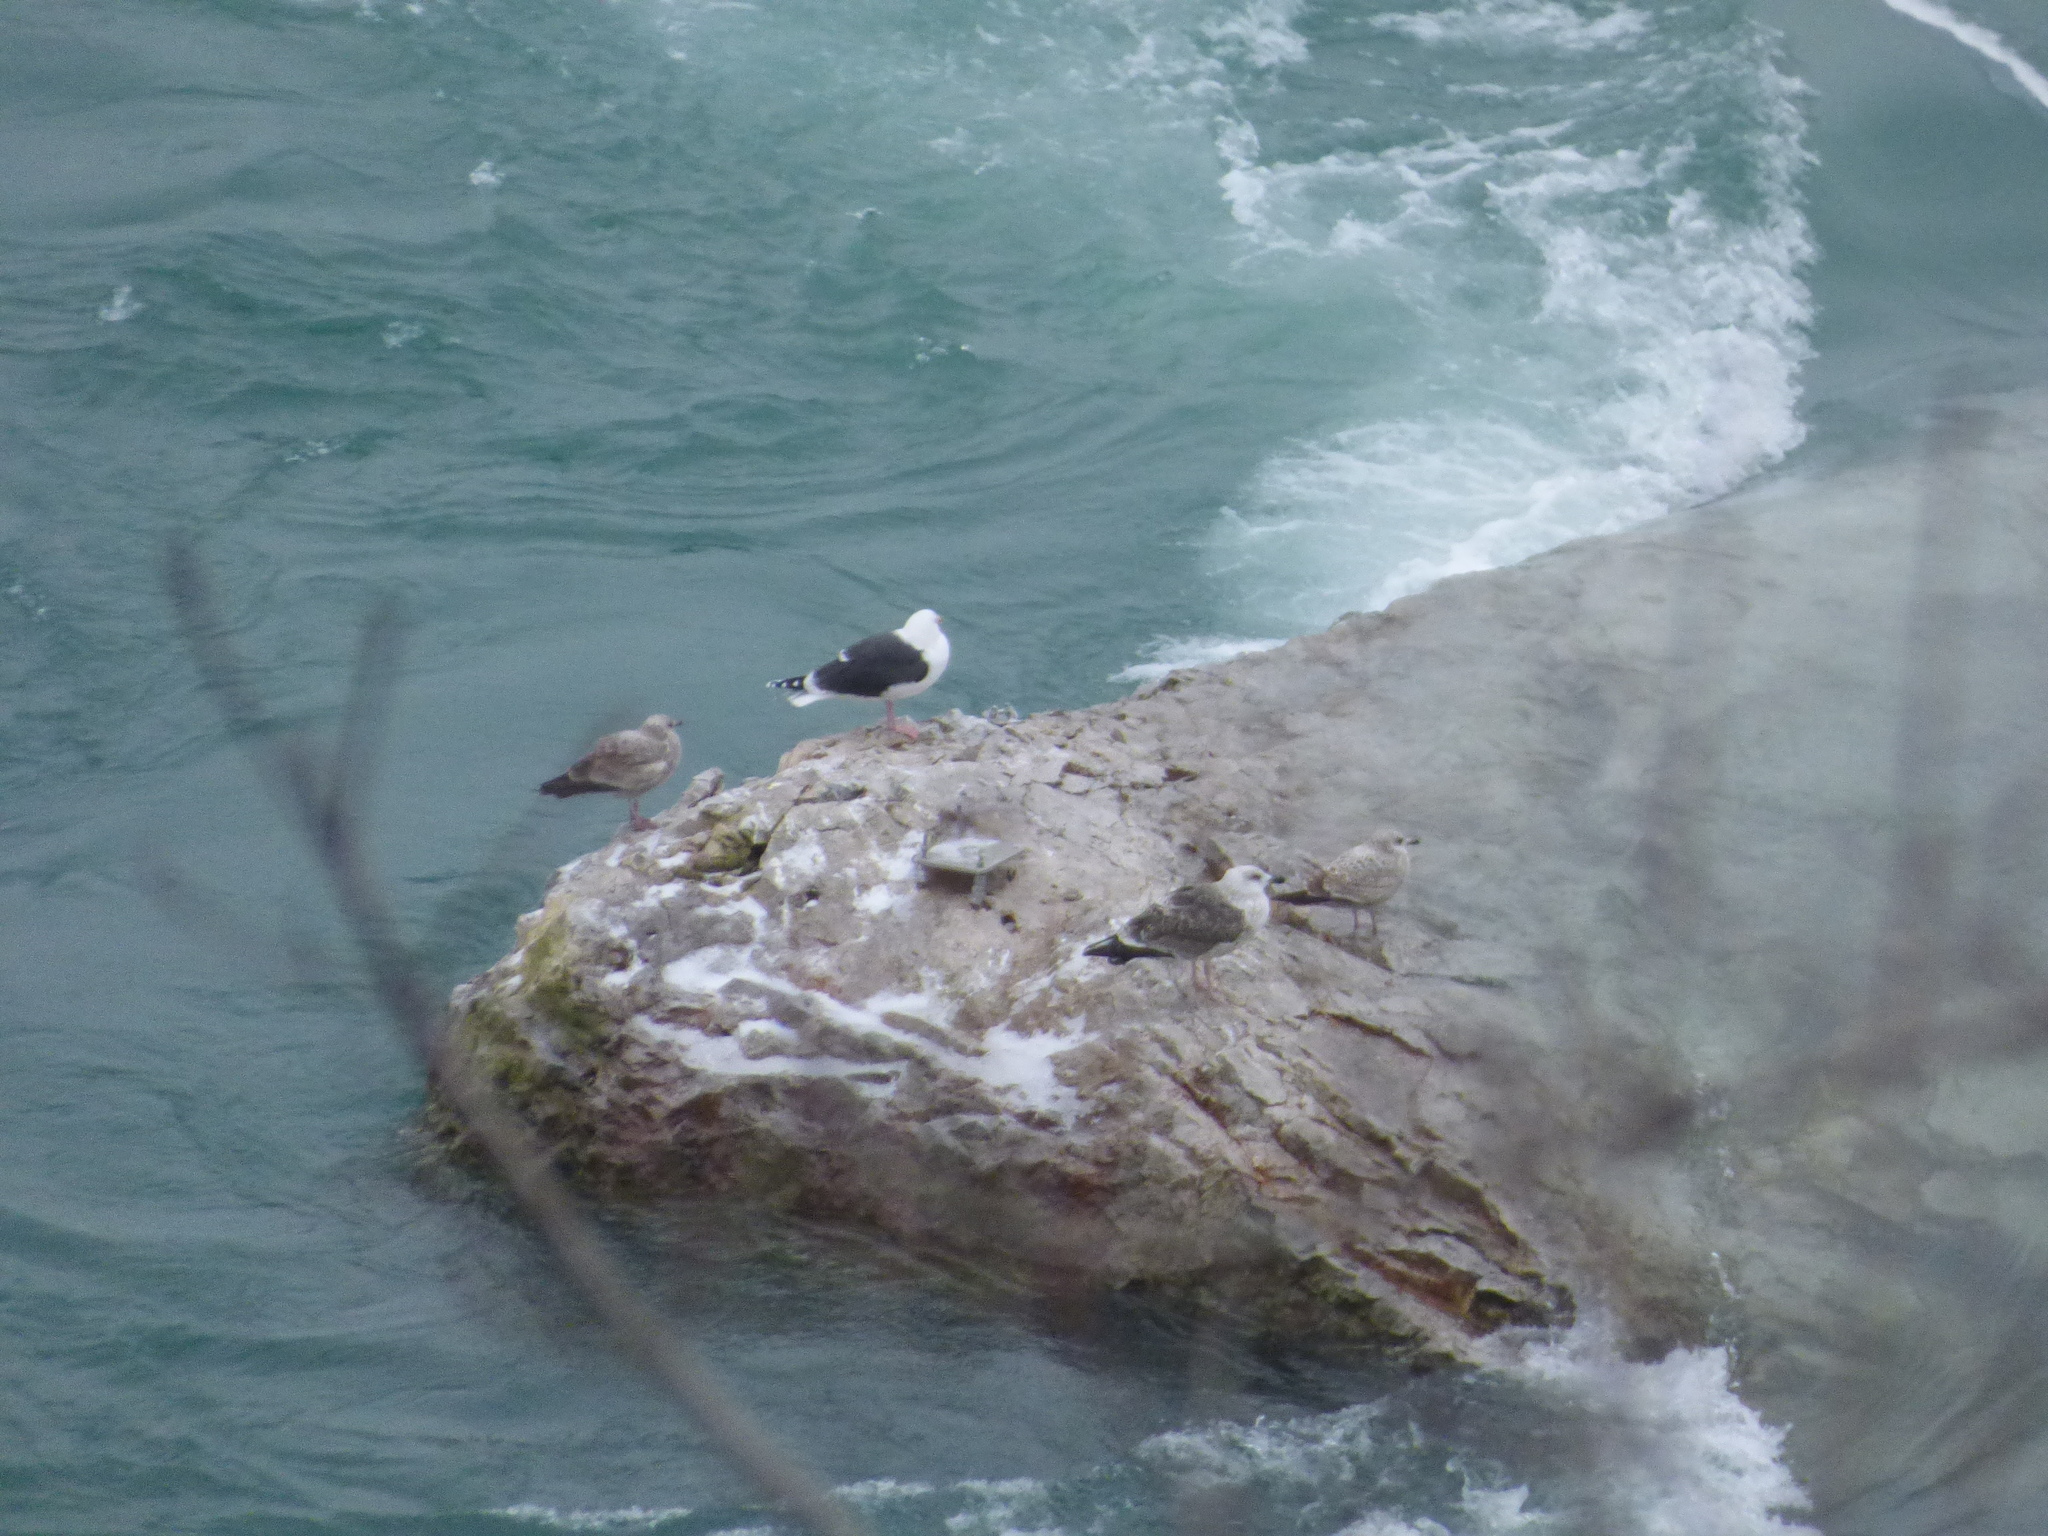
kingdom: Animalia
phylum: Chordata
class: Aves
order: Charadriiformes
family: Laridae
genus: Larus
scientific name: Larus marinus
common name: Great black-backed gull
